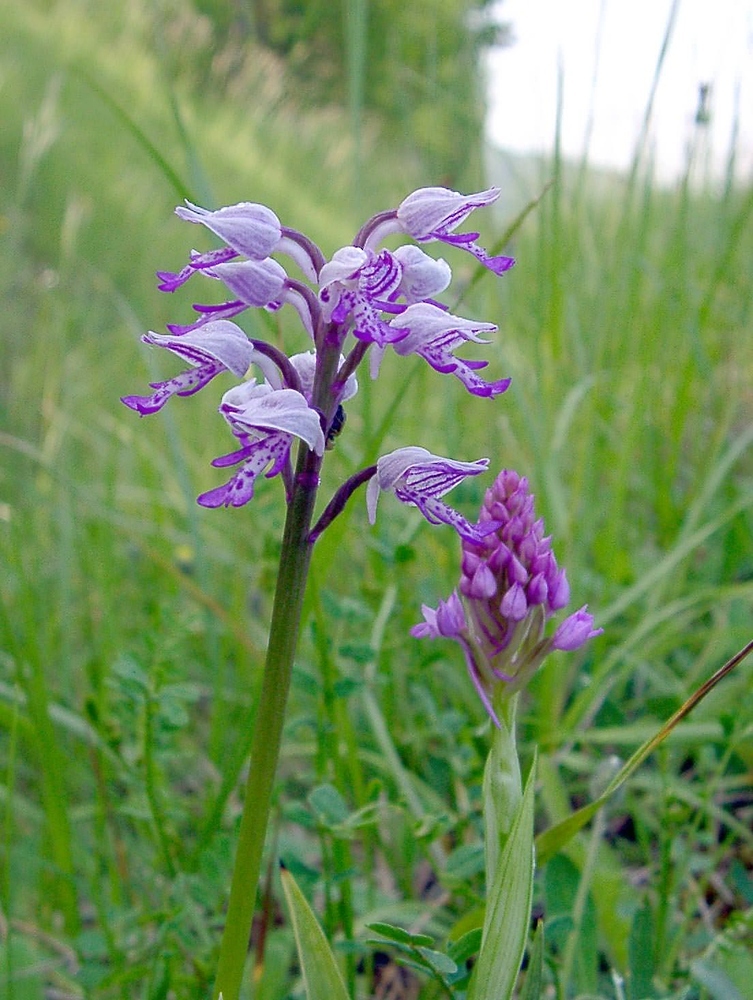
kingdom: Plantae
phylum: Tracheophyta
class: Liliopsida
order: Asparagales
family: Orchidaceae
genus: Orchis
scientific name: Orchis militaris
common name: Military orchid
